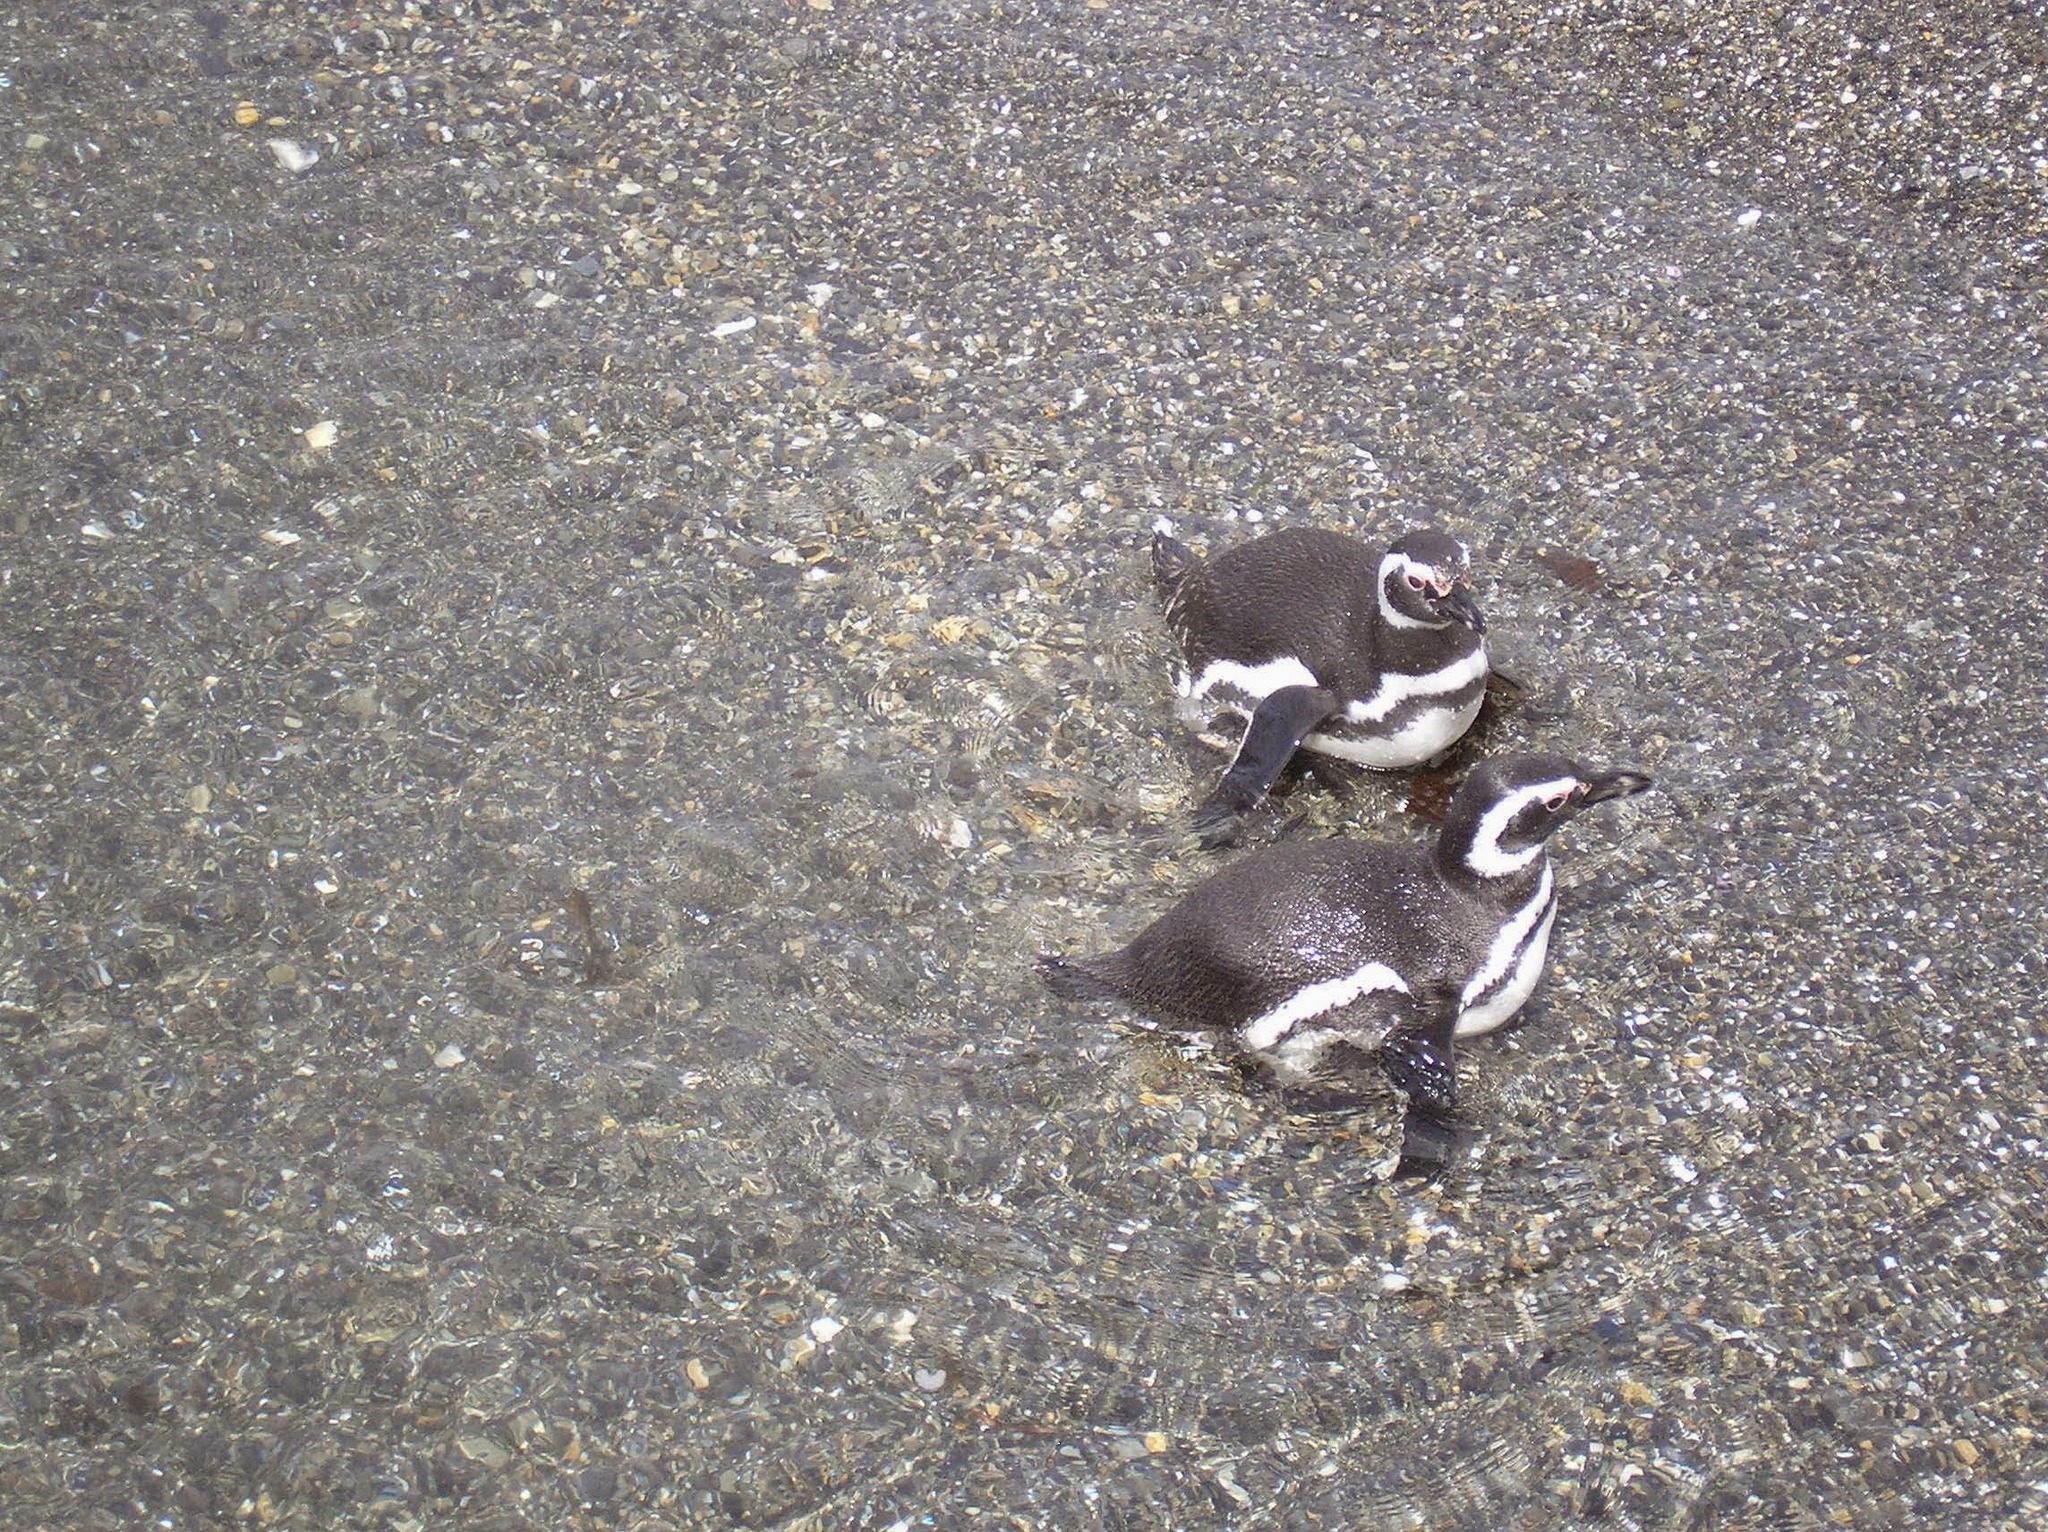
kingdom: Animalia
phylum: Chordata
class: Aves
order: Sphenisciformes
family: Spheniscidae
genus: Spheniscus
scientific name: Spheniscus magellanicus
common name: Magellanic penguin
